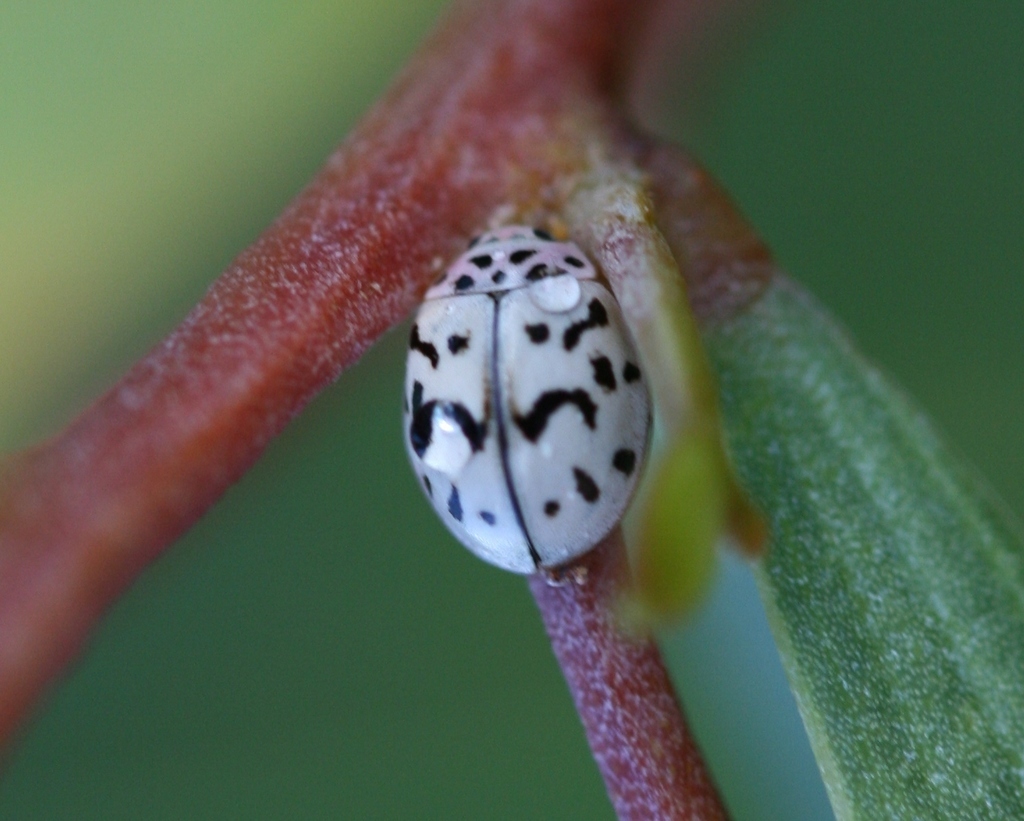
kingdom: Animalia
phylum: Arthropoda
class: Insecta
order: Coleoptera
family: Coccinellidae
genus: Oenopia
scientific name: Oenopia doublieri
